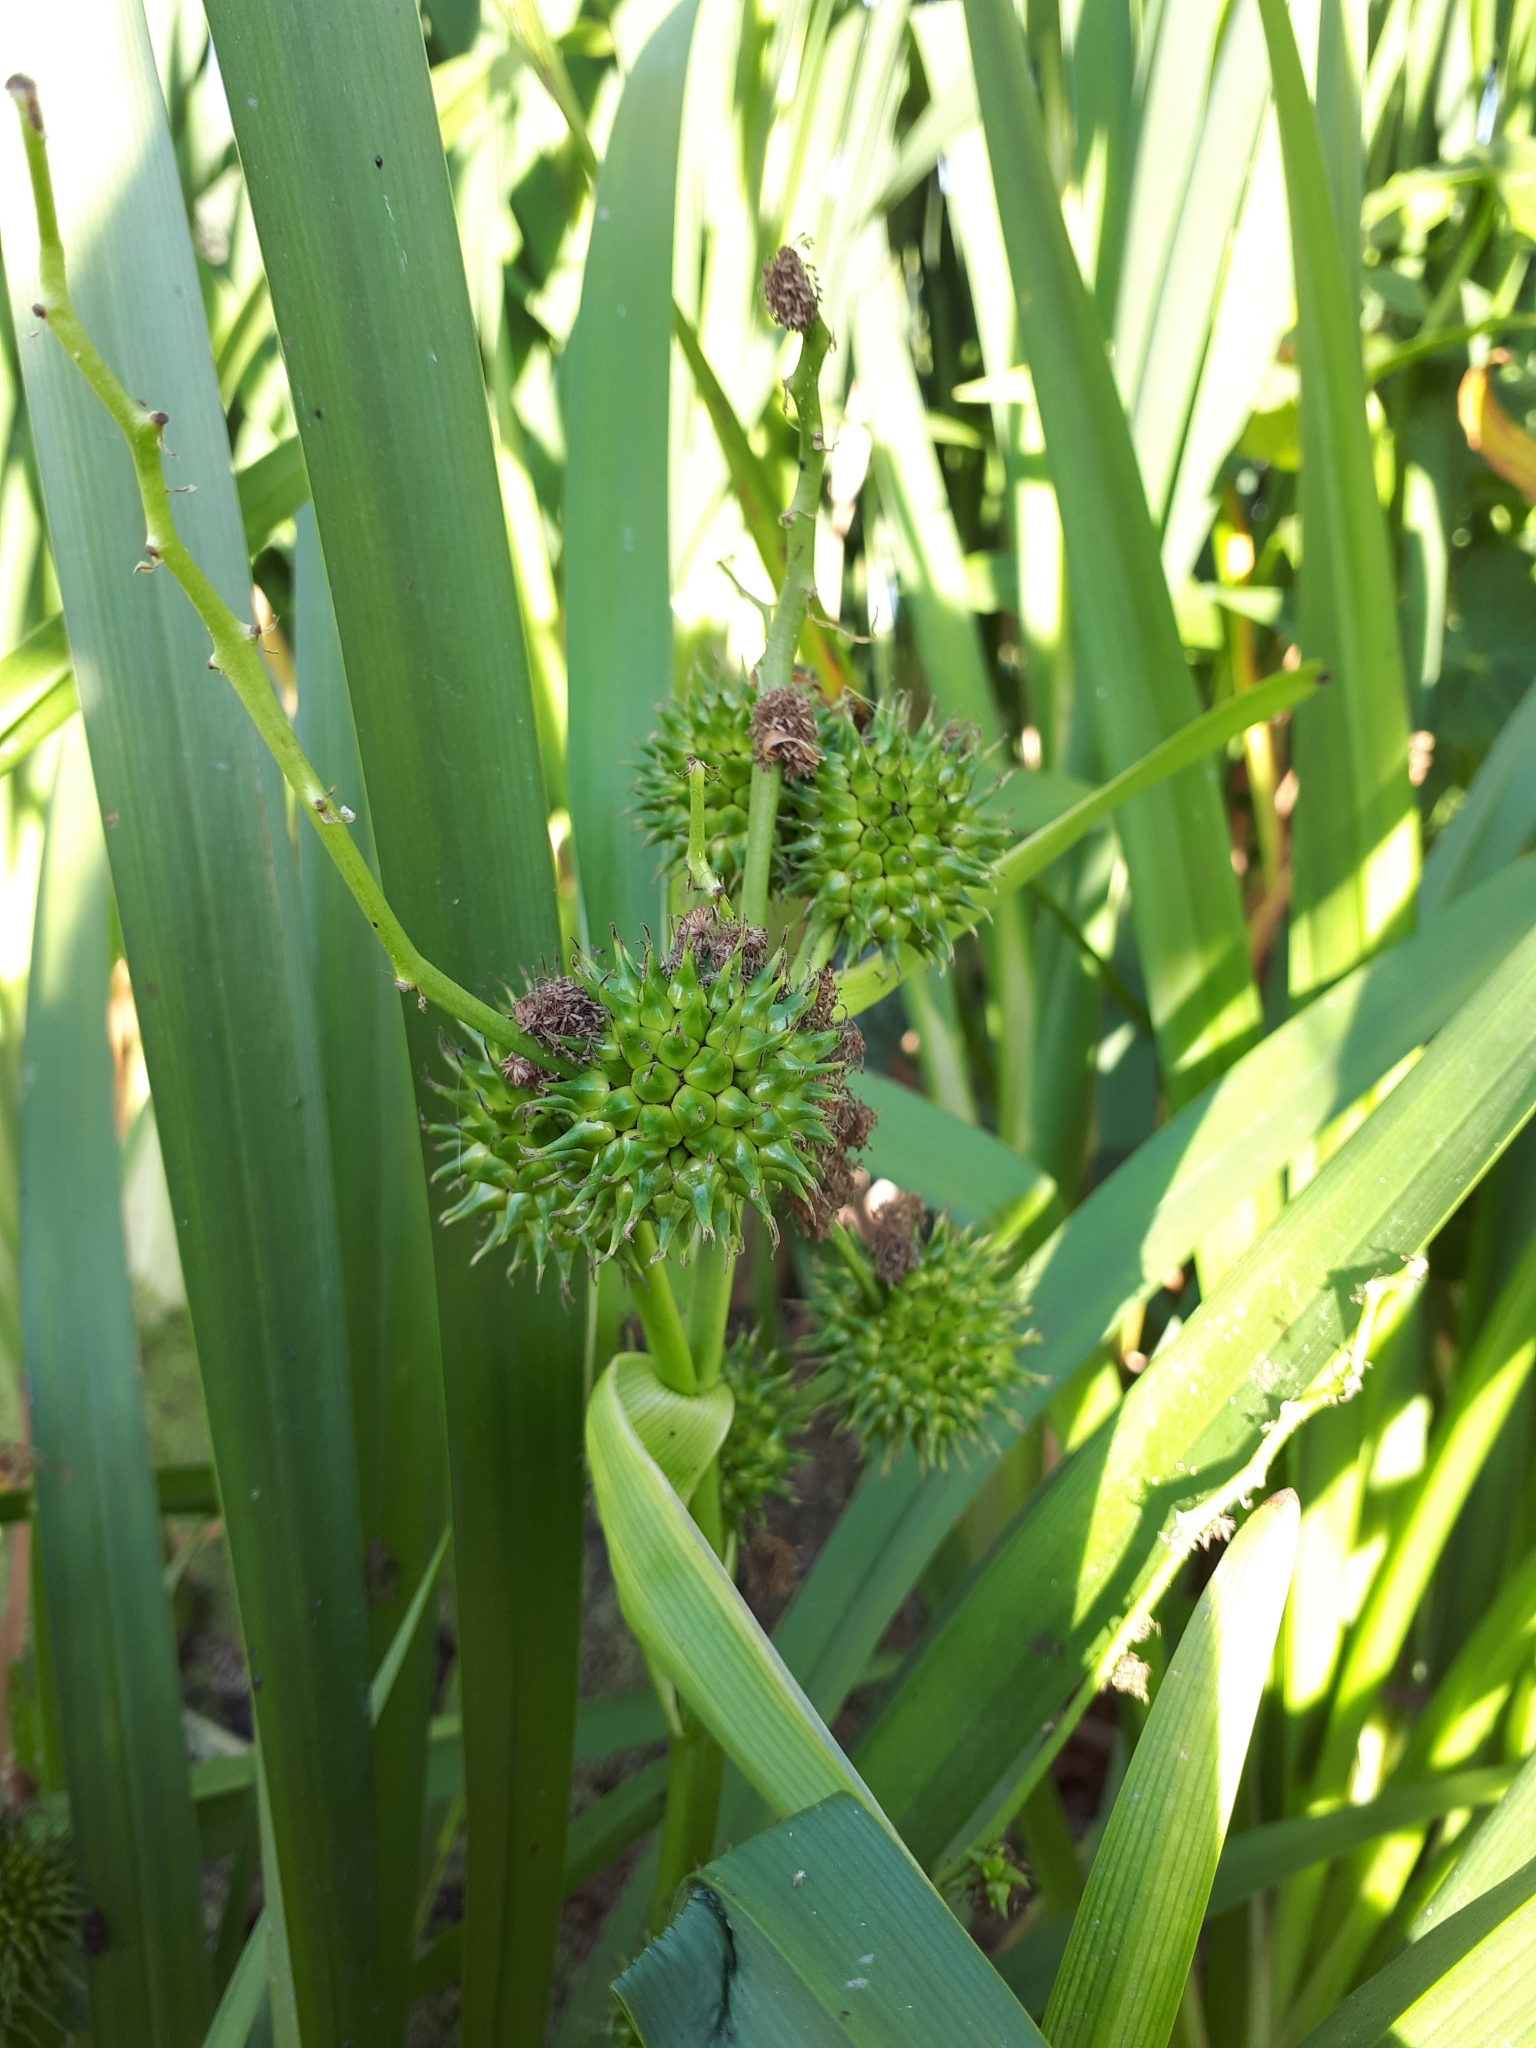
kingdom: Plantae
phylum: Tracheophyta
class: Liliopsida
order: Poales
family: Typhaceae
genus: Sparganium
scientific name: Sparganium erectum
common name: Branched bur-reed
